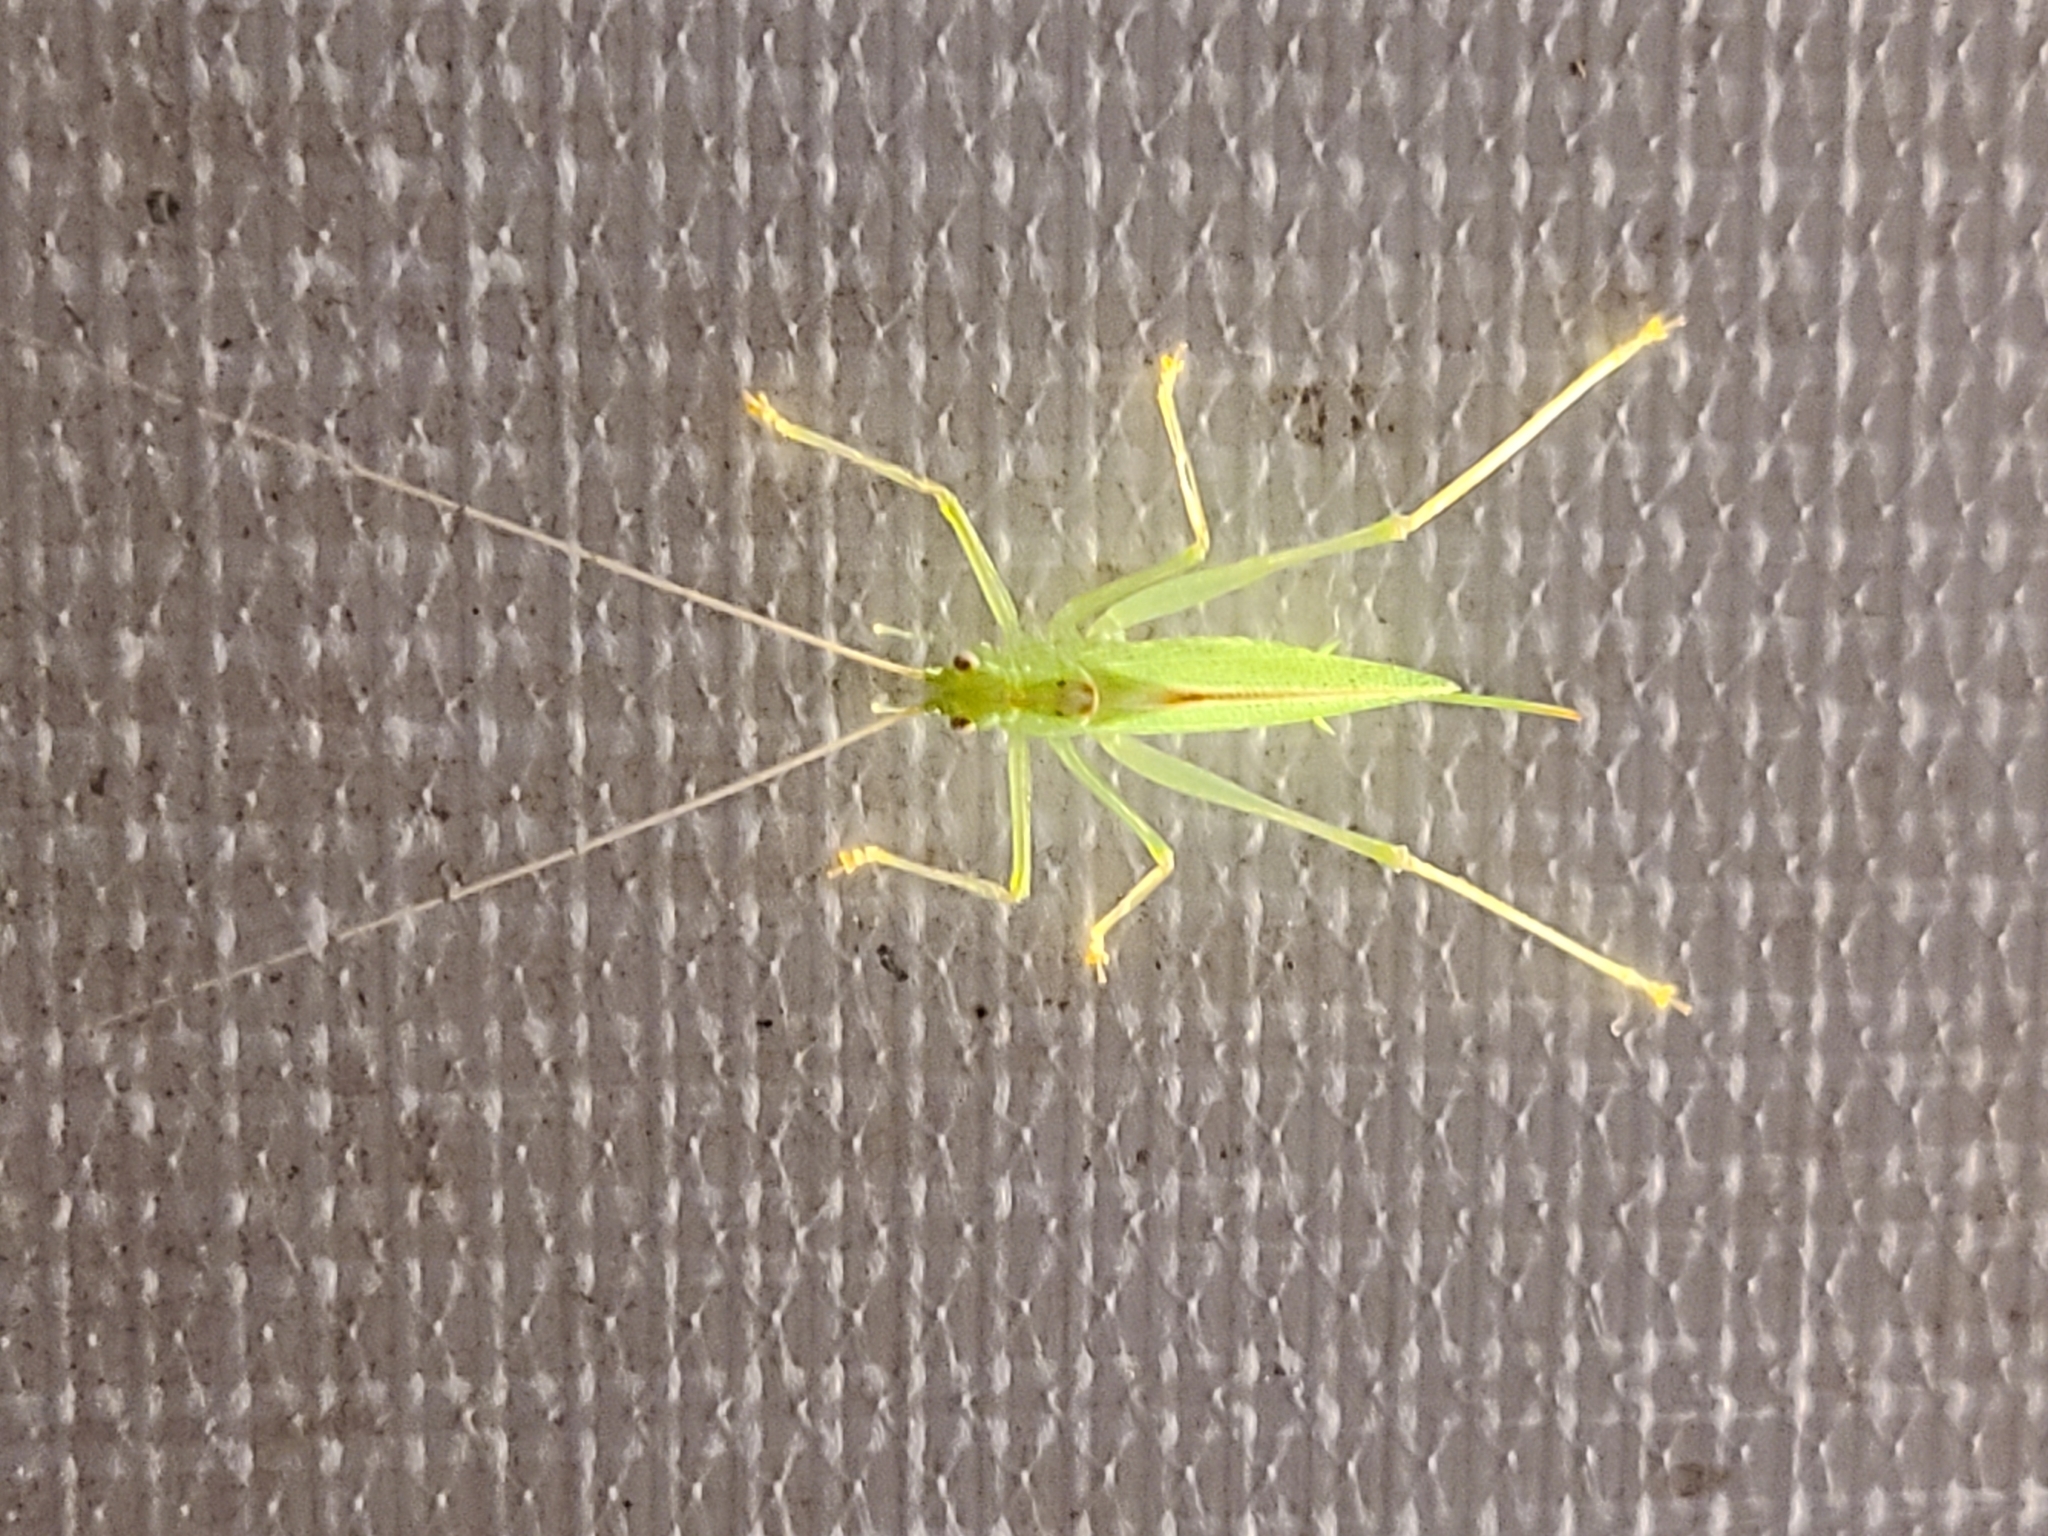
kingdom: Animalia
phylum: Arthropoda
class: Insecta
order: Orthoptera
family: Tettigoniidae
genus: Meconema
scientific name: Meconema thalassinum
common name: Oak bush-cricket
